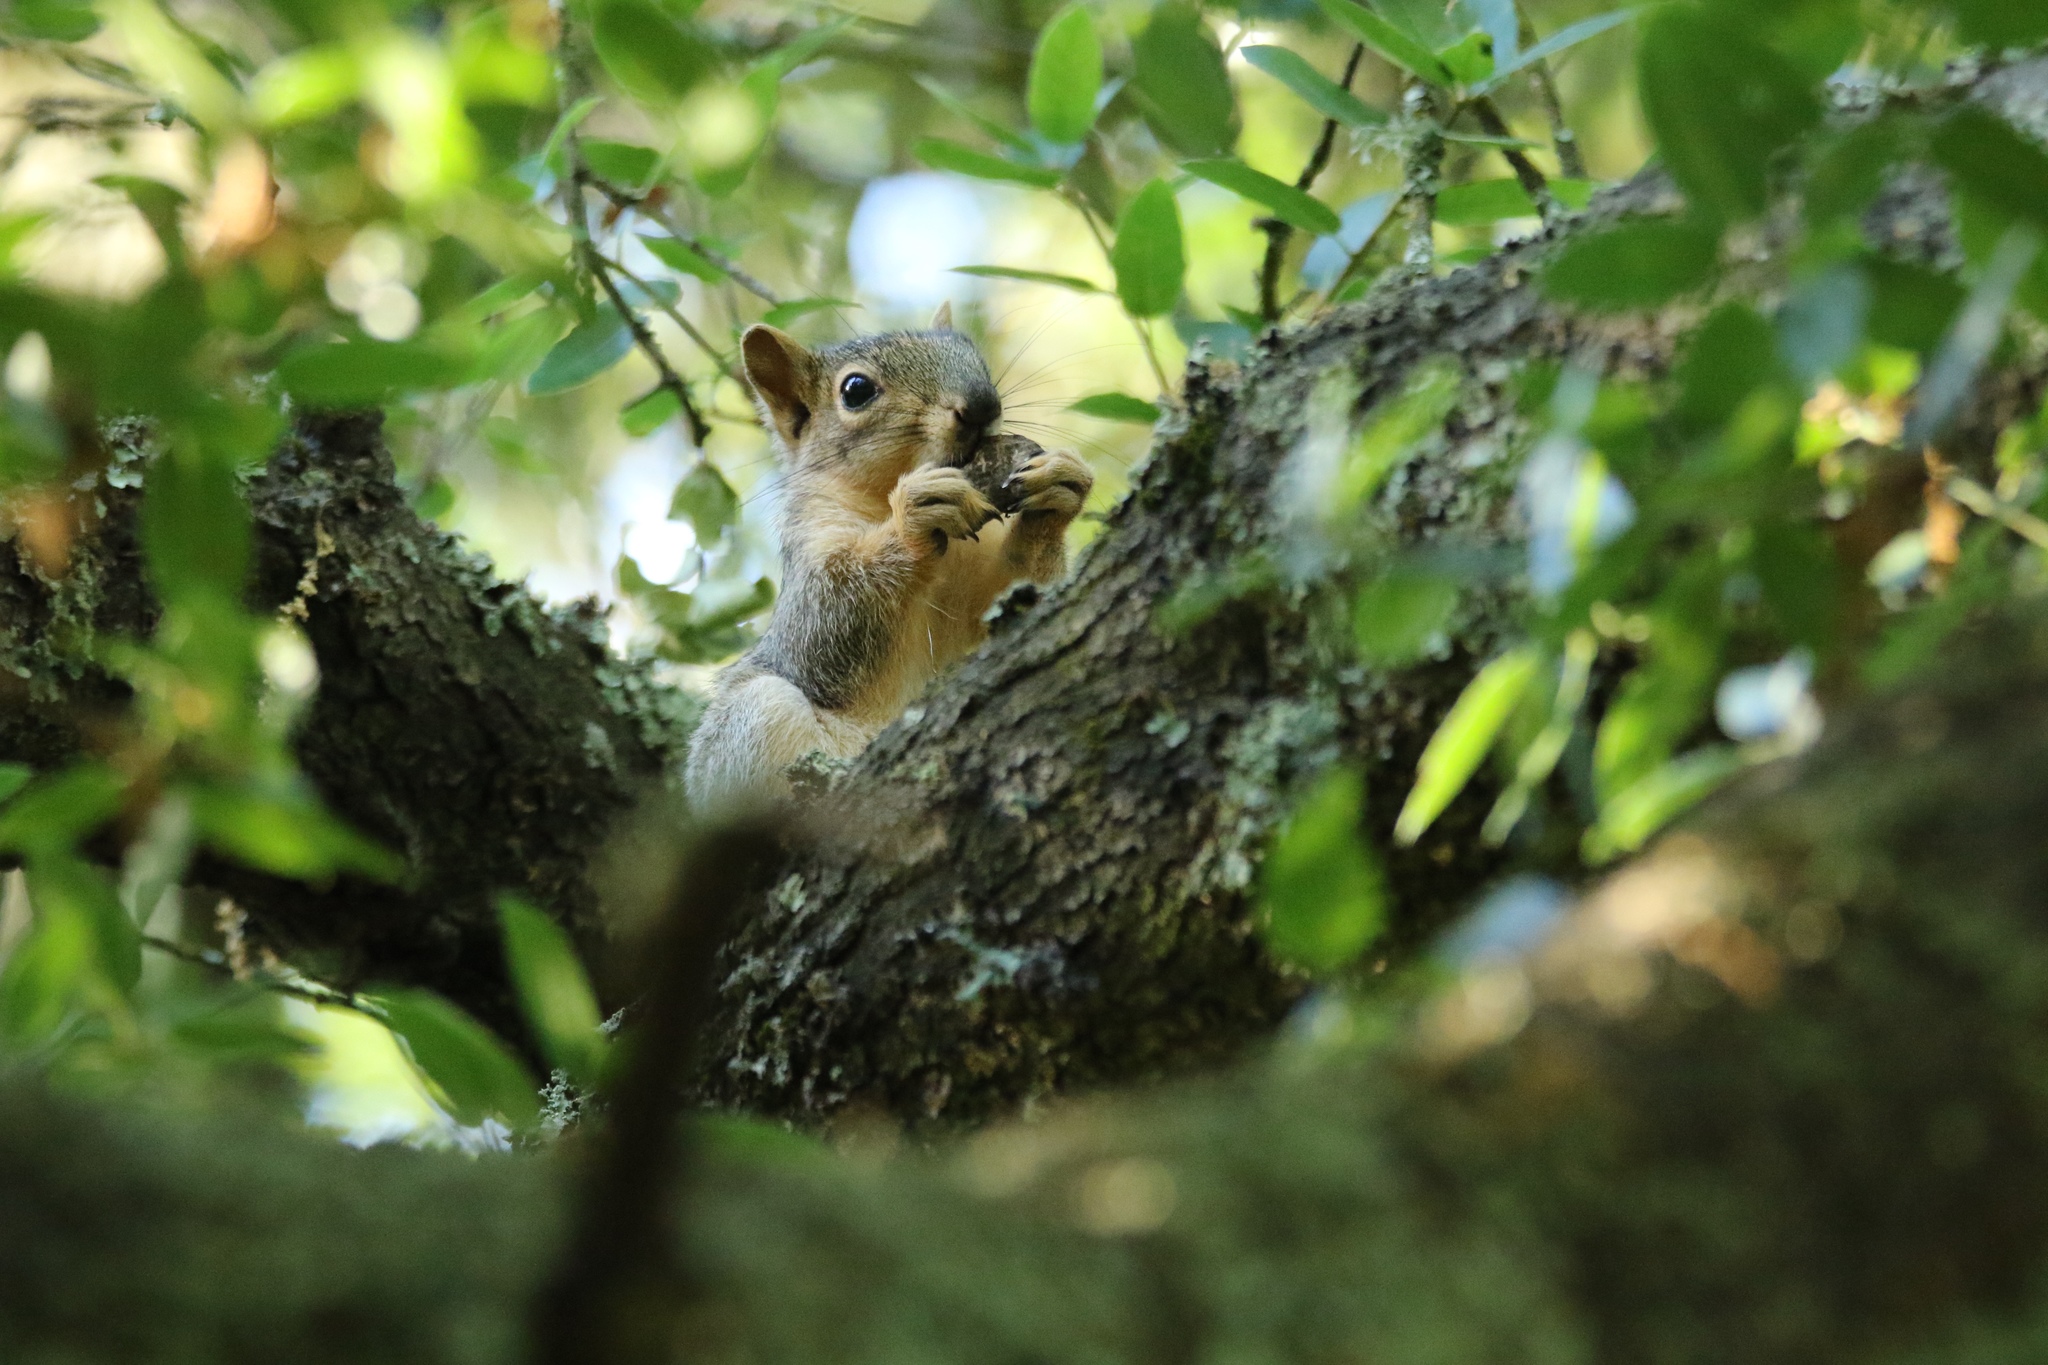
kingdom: Animalia
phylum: Chordata
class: Mammalia
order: Rodentia
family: Sciuridae
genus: Sciurus
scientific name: Sciurus niger
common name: Fox squirrel
